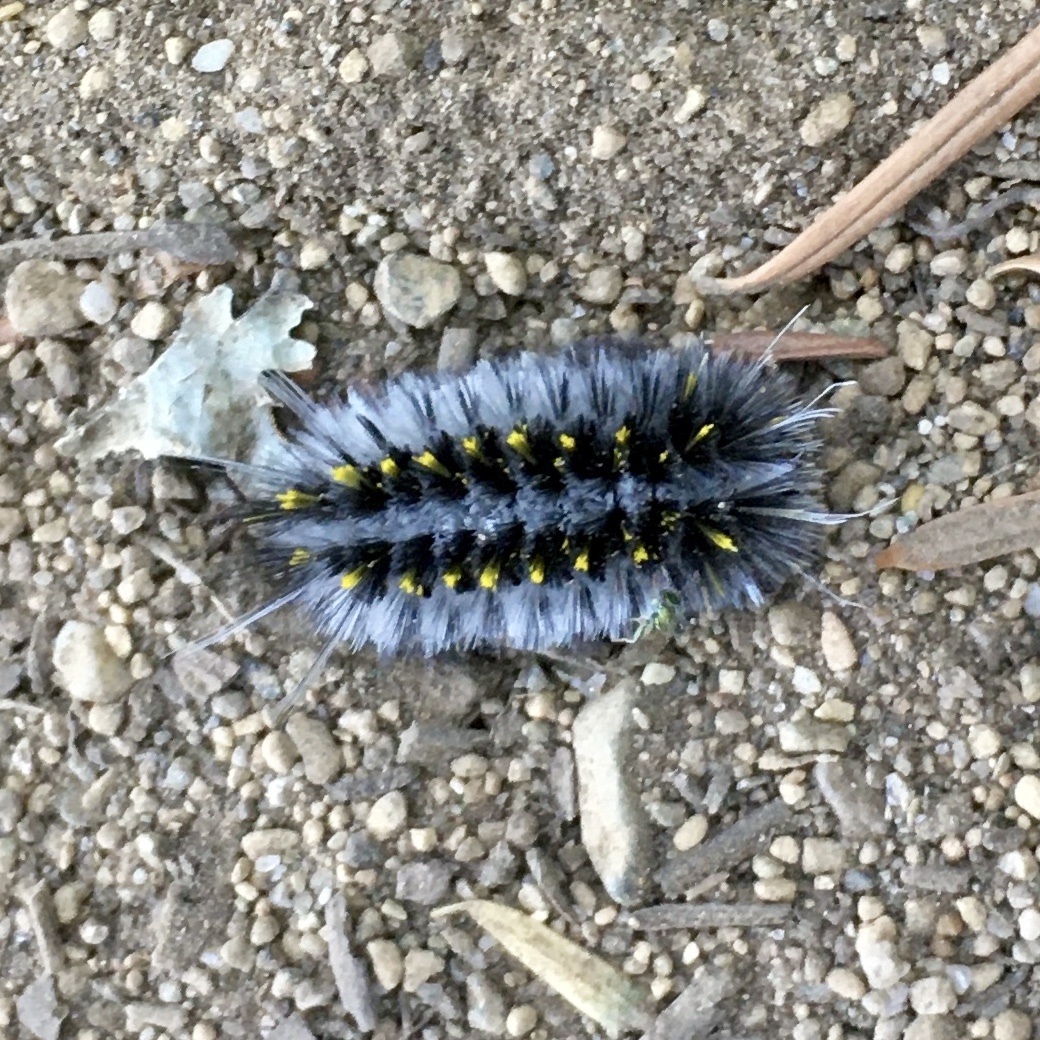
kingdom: Animalia
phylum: Arthropoda
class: Insecta
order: Lepidoptera
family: Erebidae
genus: Lophocampa
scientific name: Lophocampa roseata
